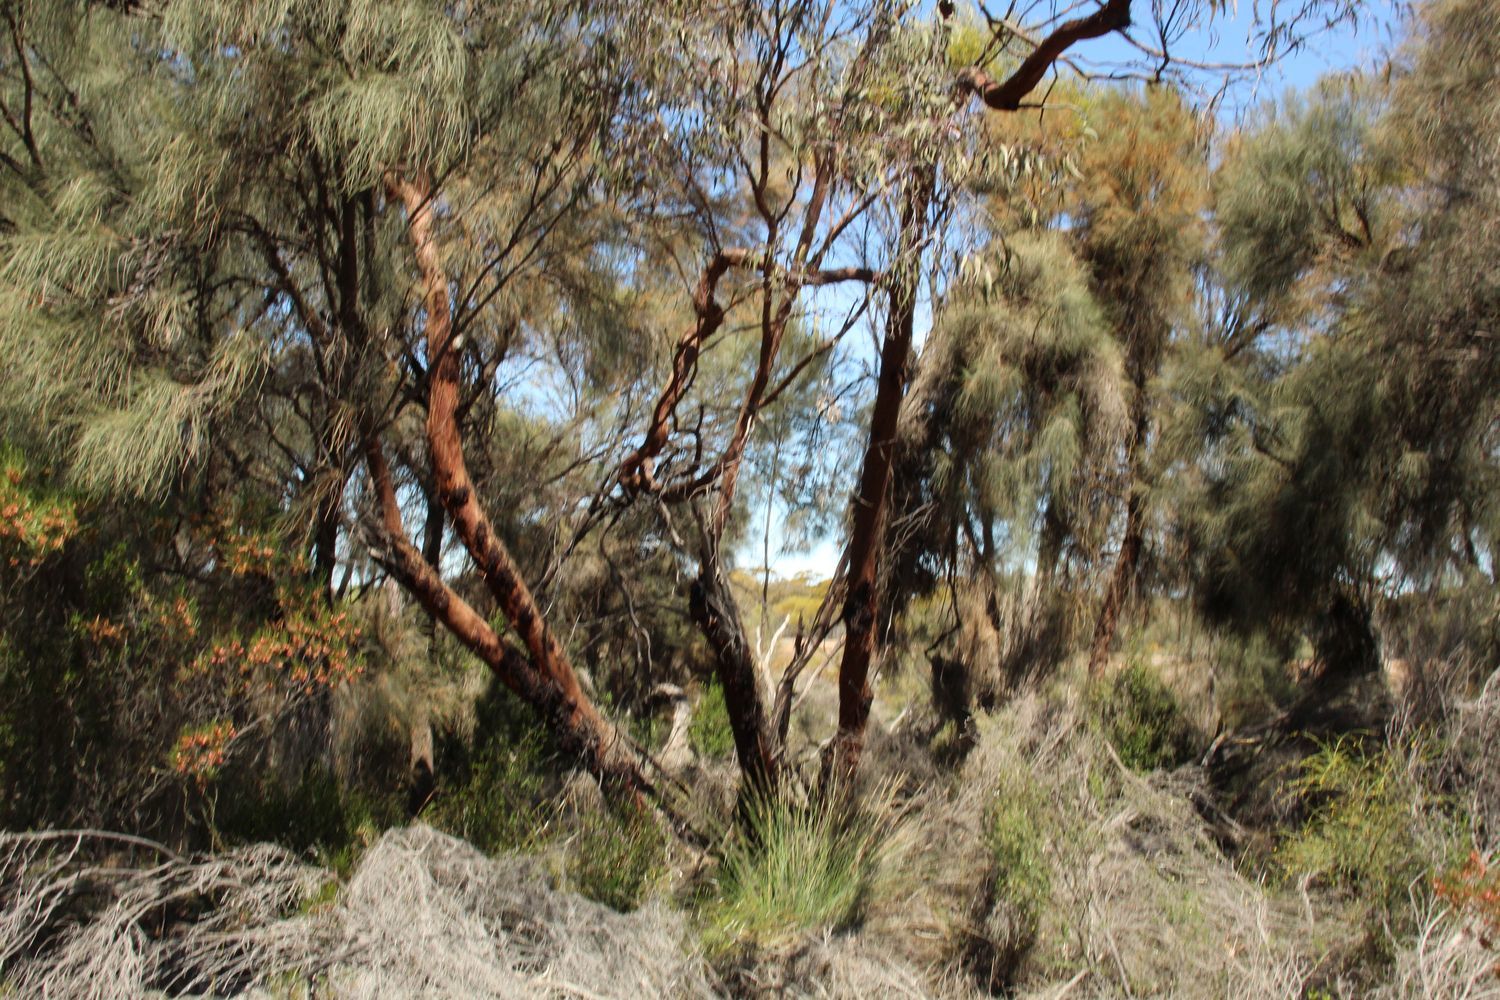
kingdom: Plantae
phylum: Tracheophyta
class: Magnoliopsida
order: Myrtales
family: Myrtaceae
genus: Eucalyptus
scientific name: Eucalyptus caesia
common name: Silver princess
